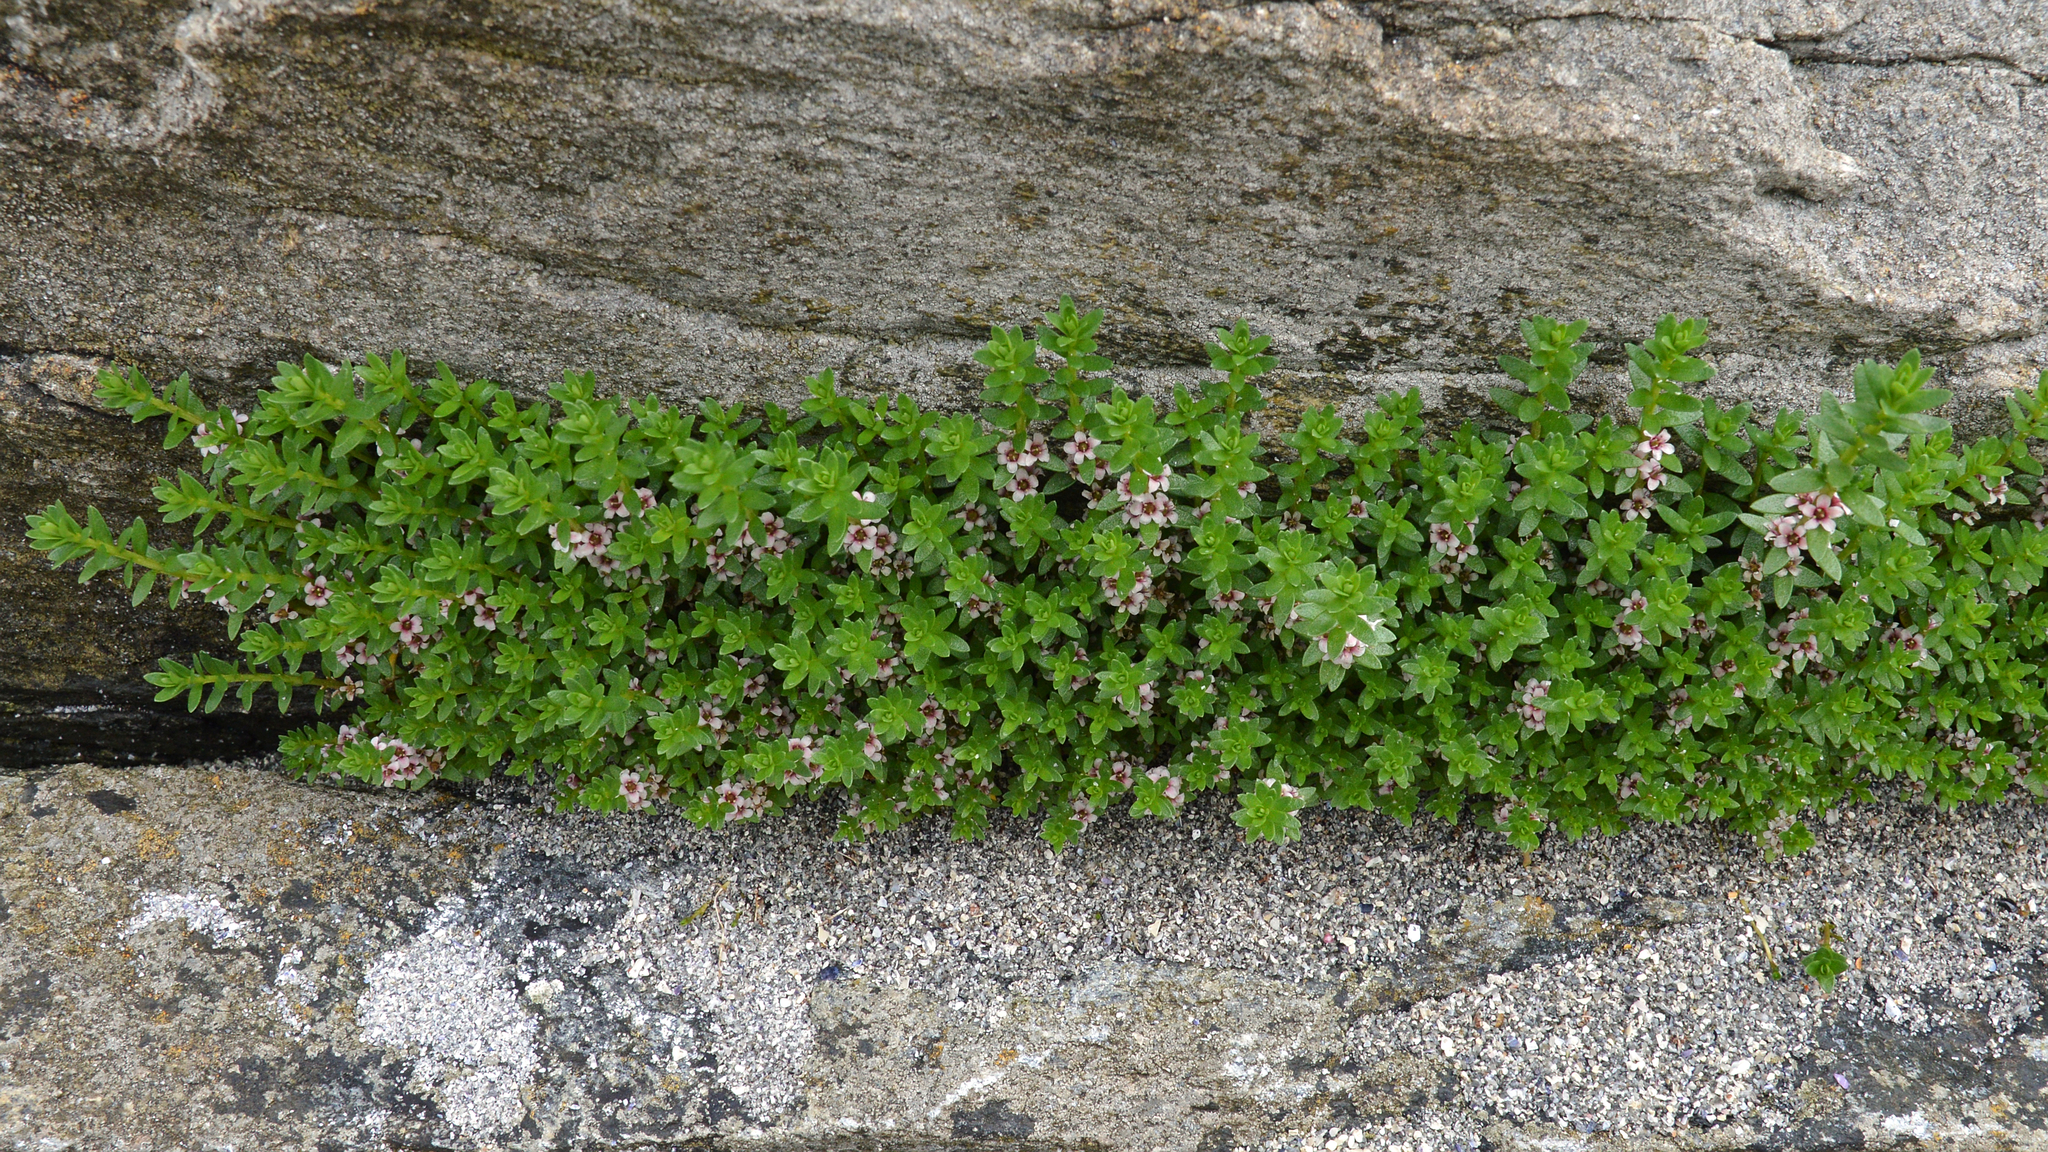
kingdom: Plantae
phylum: Tracheophyta
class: Magnoliopsida
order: Ericales
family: Primulaceae
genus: Lysimachia
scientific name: Lysimachia maritima
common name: Sea milkwort
